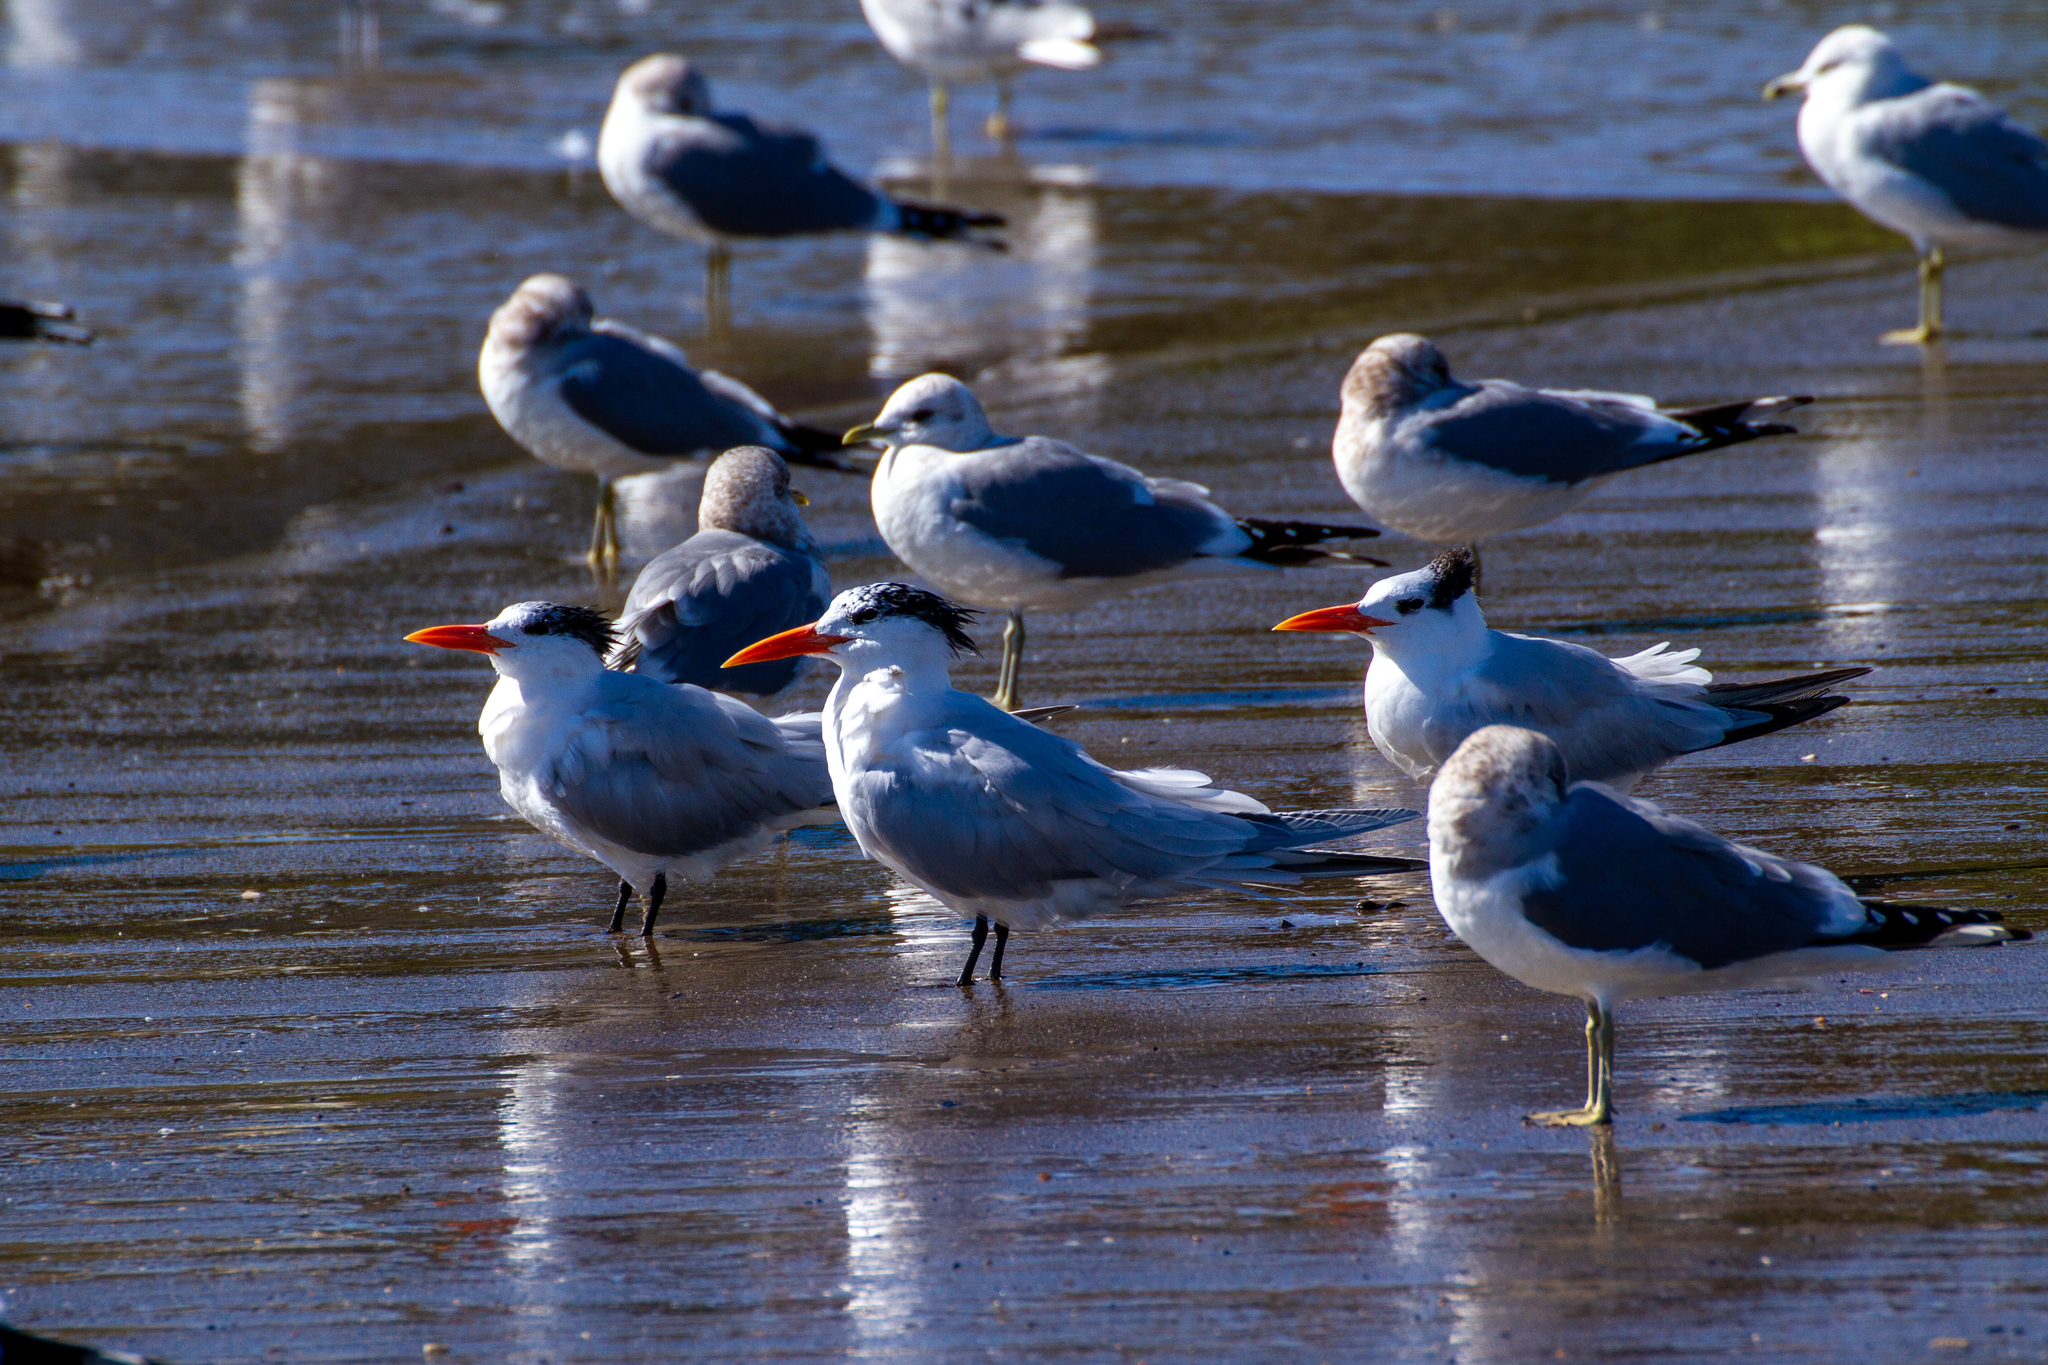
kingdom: Animalia
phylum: Chordata
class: Aves
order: Charadriiformes
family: Laridae
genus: Thalasseus
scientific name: Thalasseus maximus
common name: Royal tern
